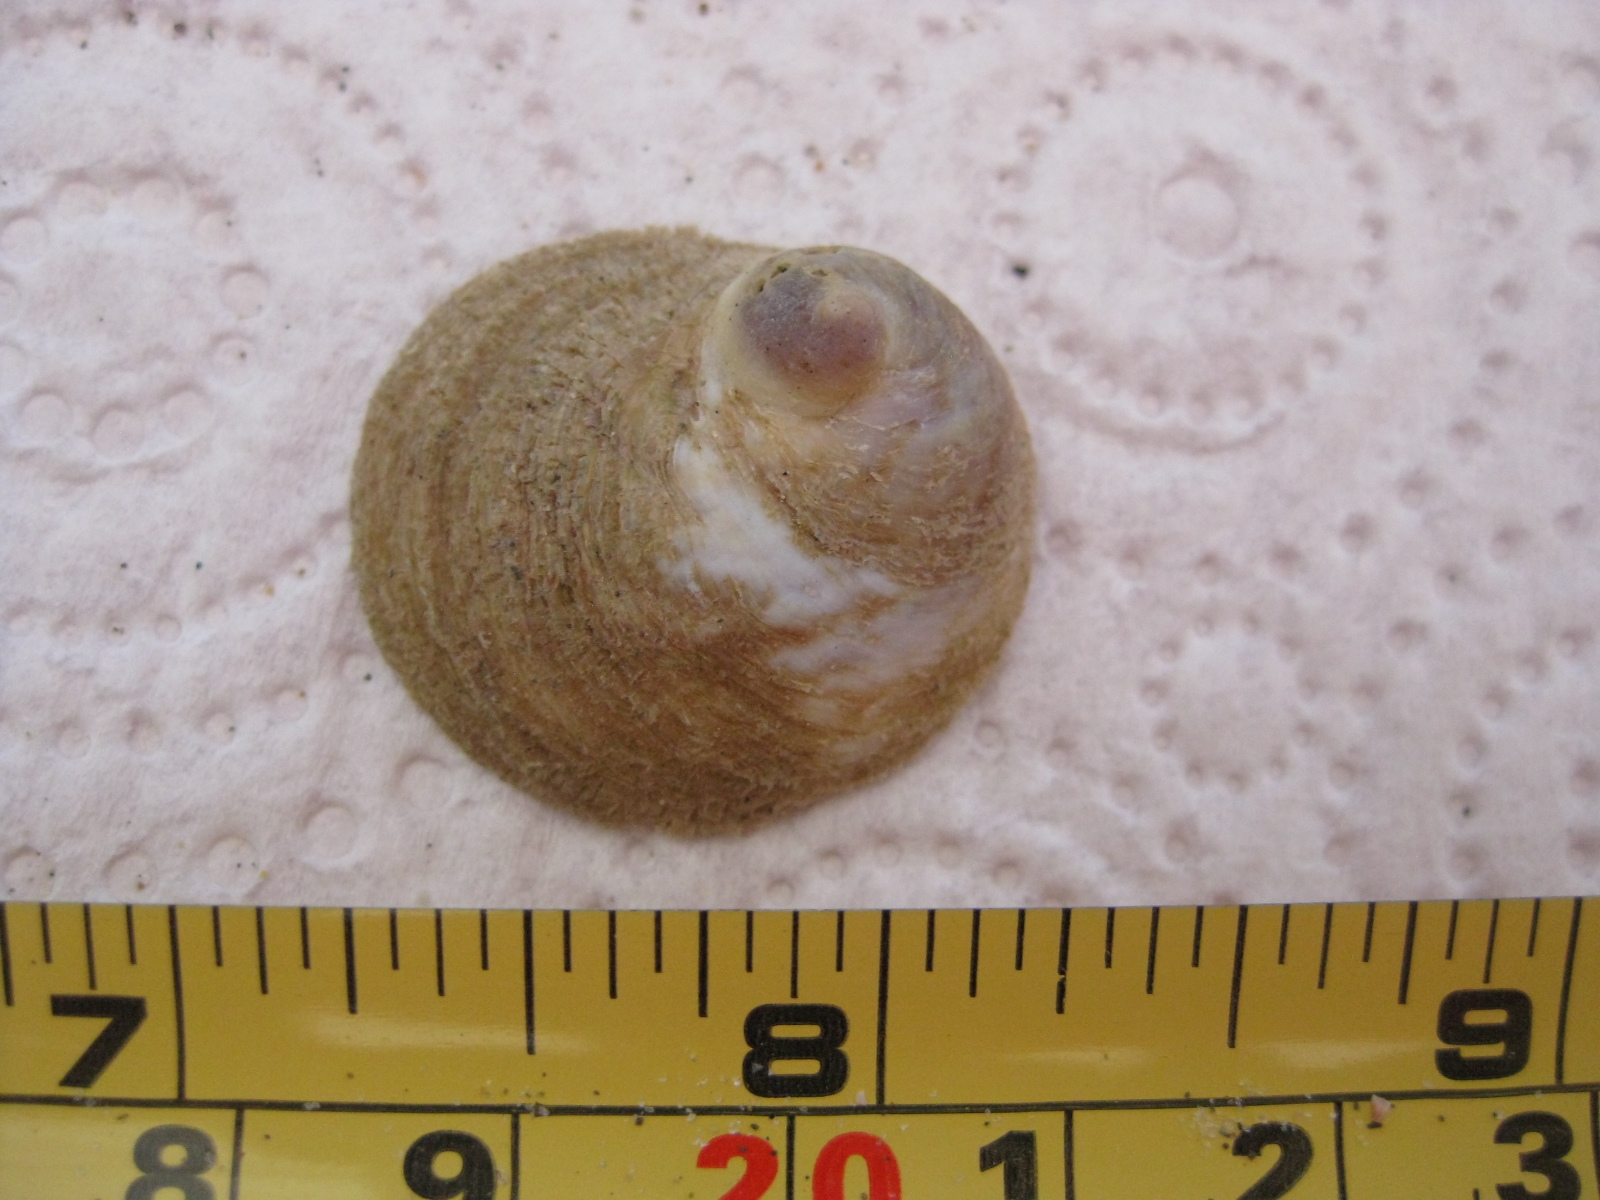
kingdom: Animalia
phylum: Mollusca
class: Gastropoda
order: Littorinimorpha
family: Calyptraeidae
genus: Sigapatella
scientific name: Sigapatella novaezelandiae
